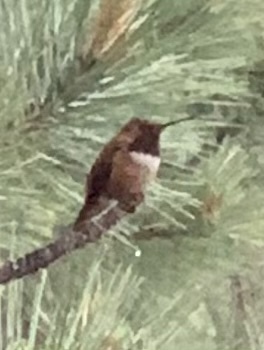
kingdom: Animalia
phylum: Chordata
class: Aves
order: Apodiformes
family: Trochilidae
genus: Selasphorus
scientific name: Selasphorus rufus
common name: Rufous hummingbird
